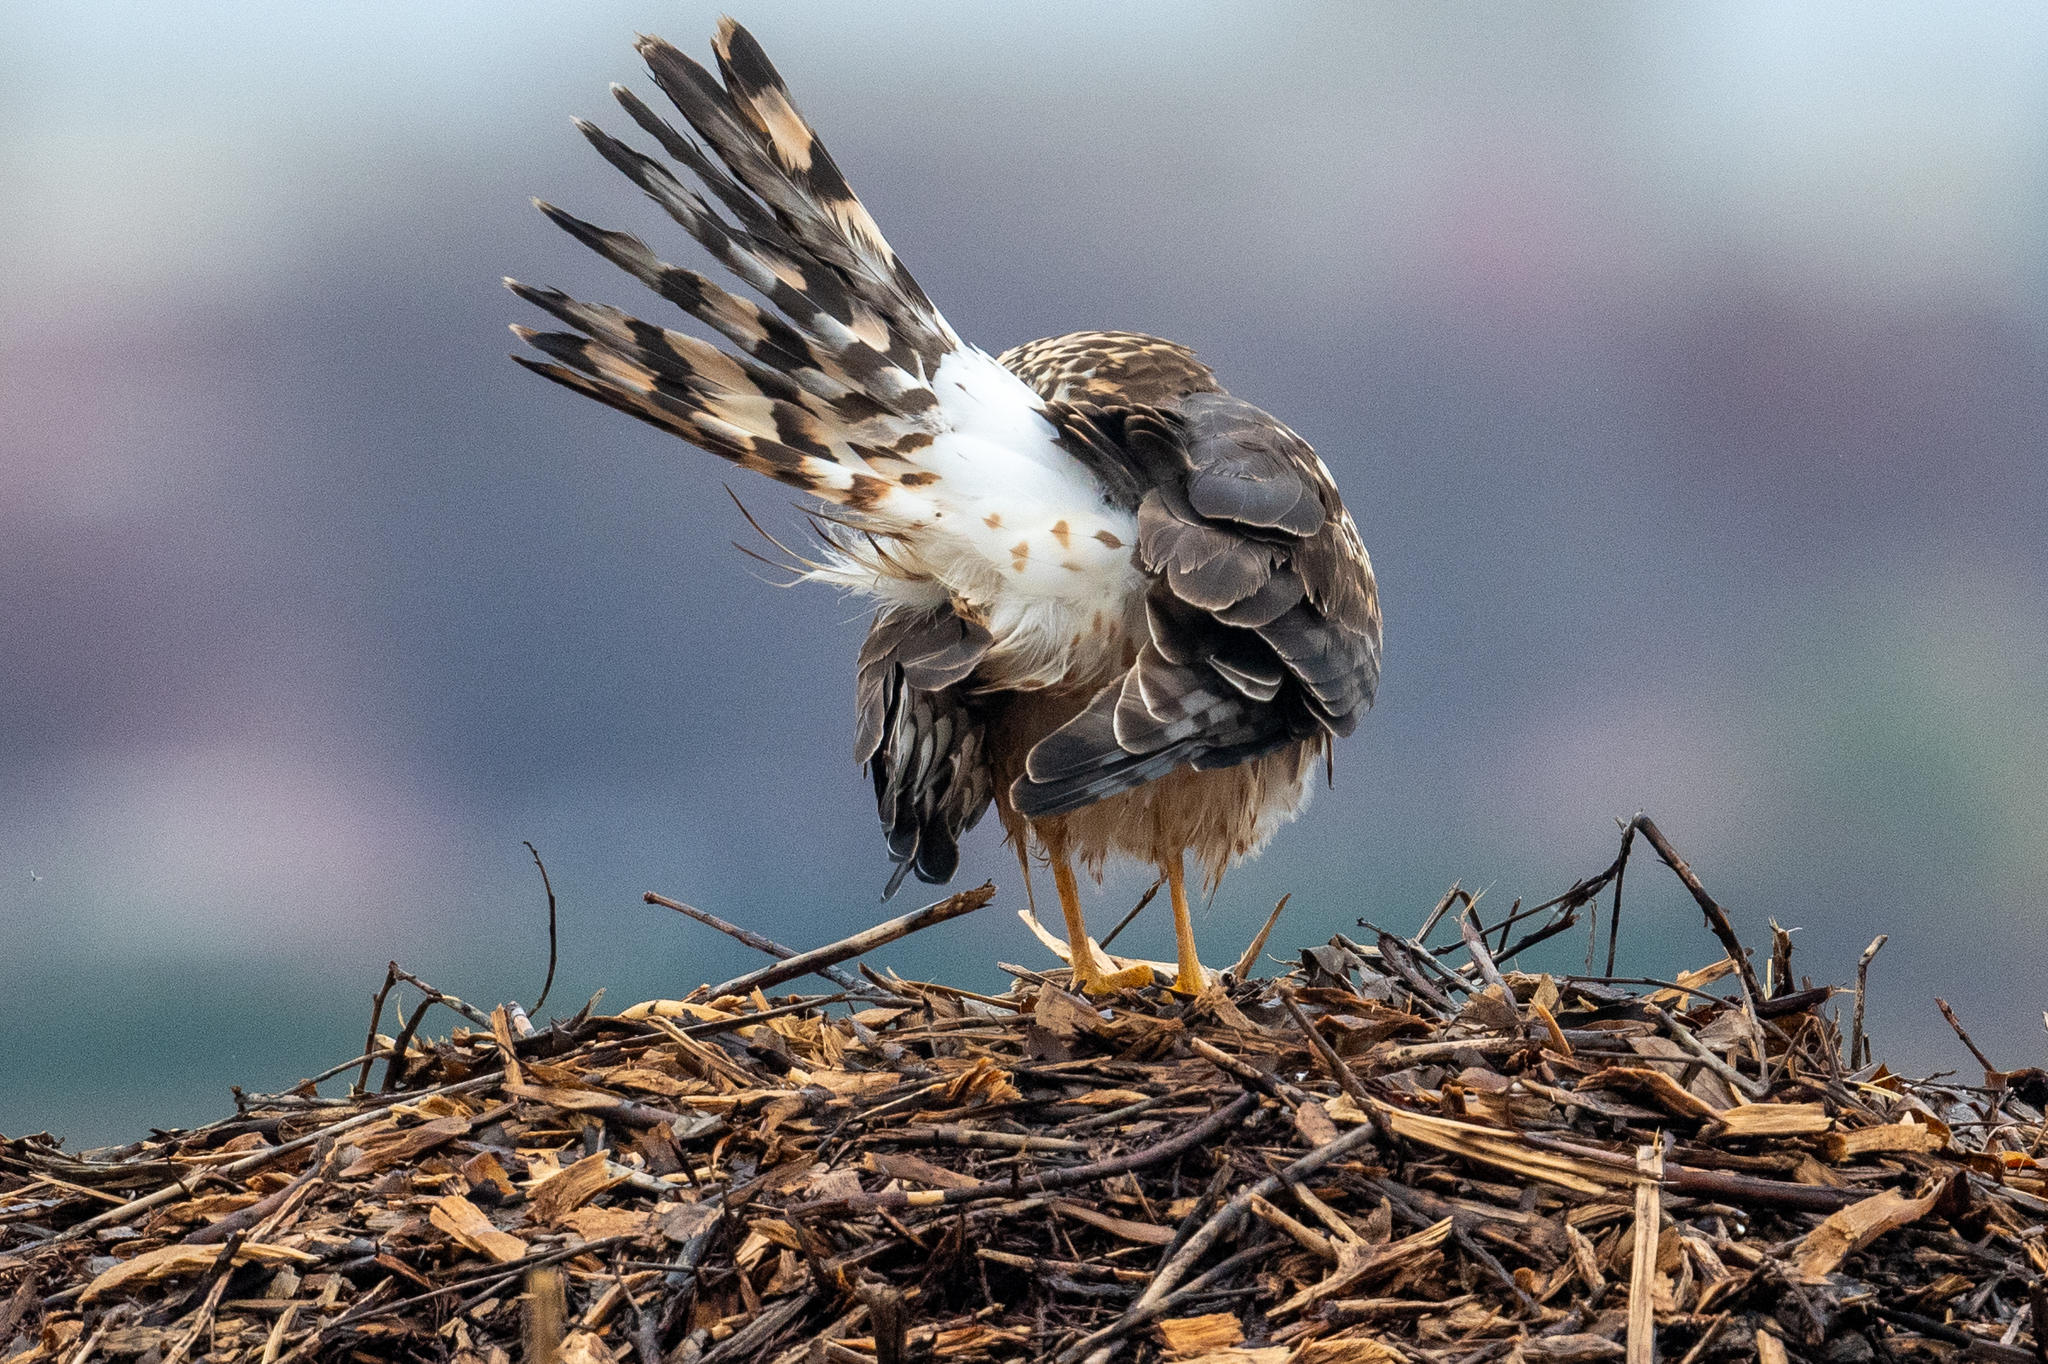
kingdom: Animalia
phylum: Chordata
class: Aves
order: Accipitriformes
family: Accipitridae
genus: Circus
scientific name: Circus cyaneus
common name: Hen harrier
